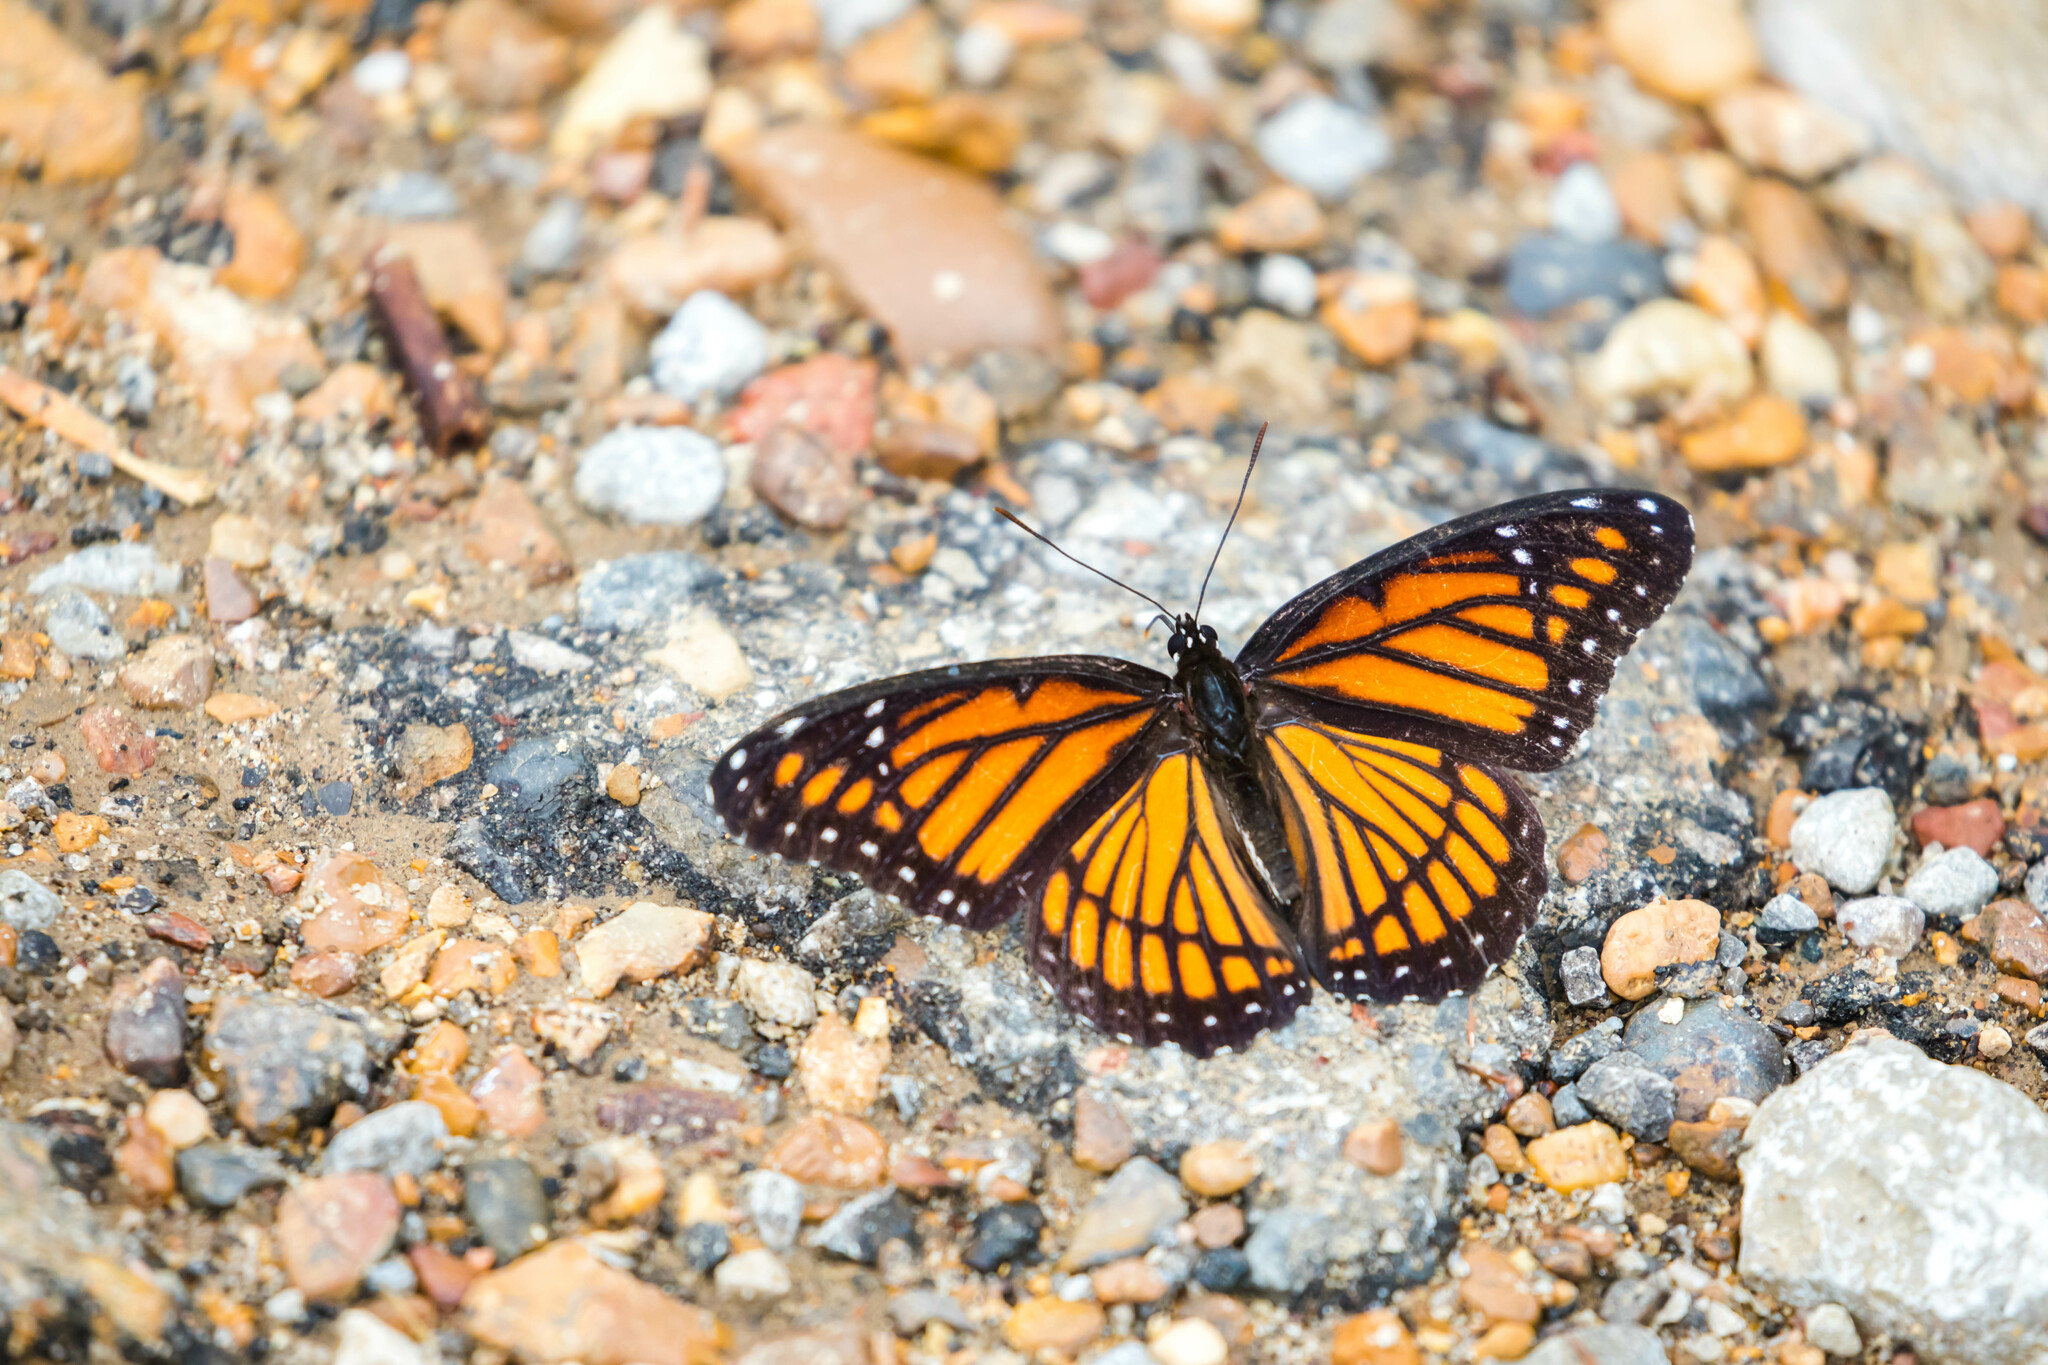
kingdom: Animalia
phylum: Arthropoda
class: Insecta
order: Lepidoptera
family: Nymphalidae
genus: Limenitis
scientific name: Limenitis archippus
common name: Viceroy
